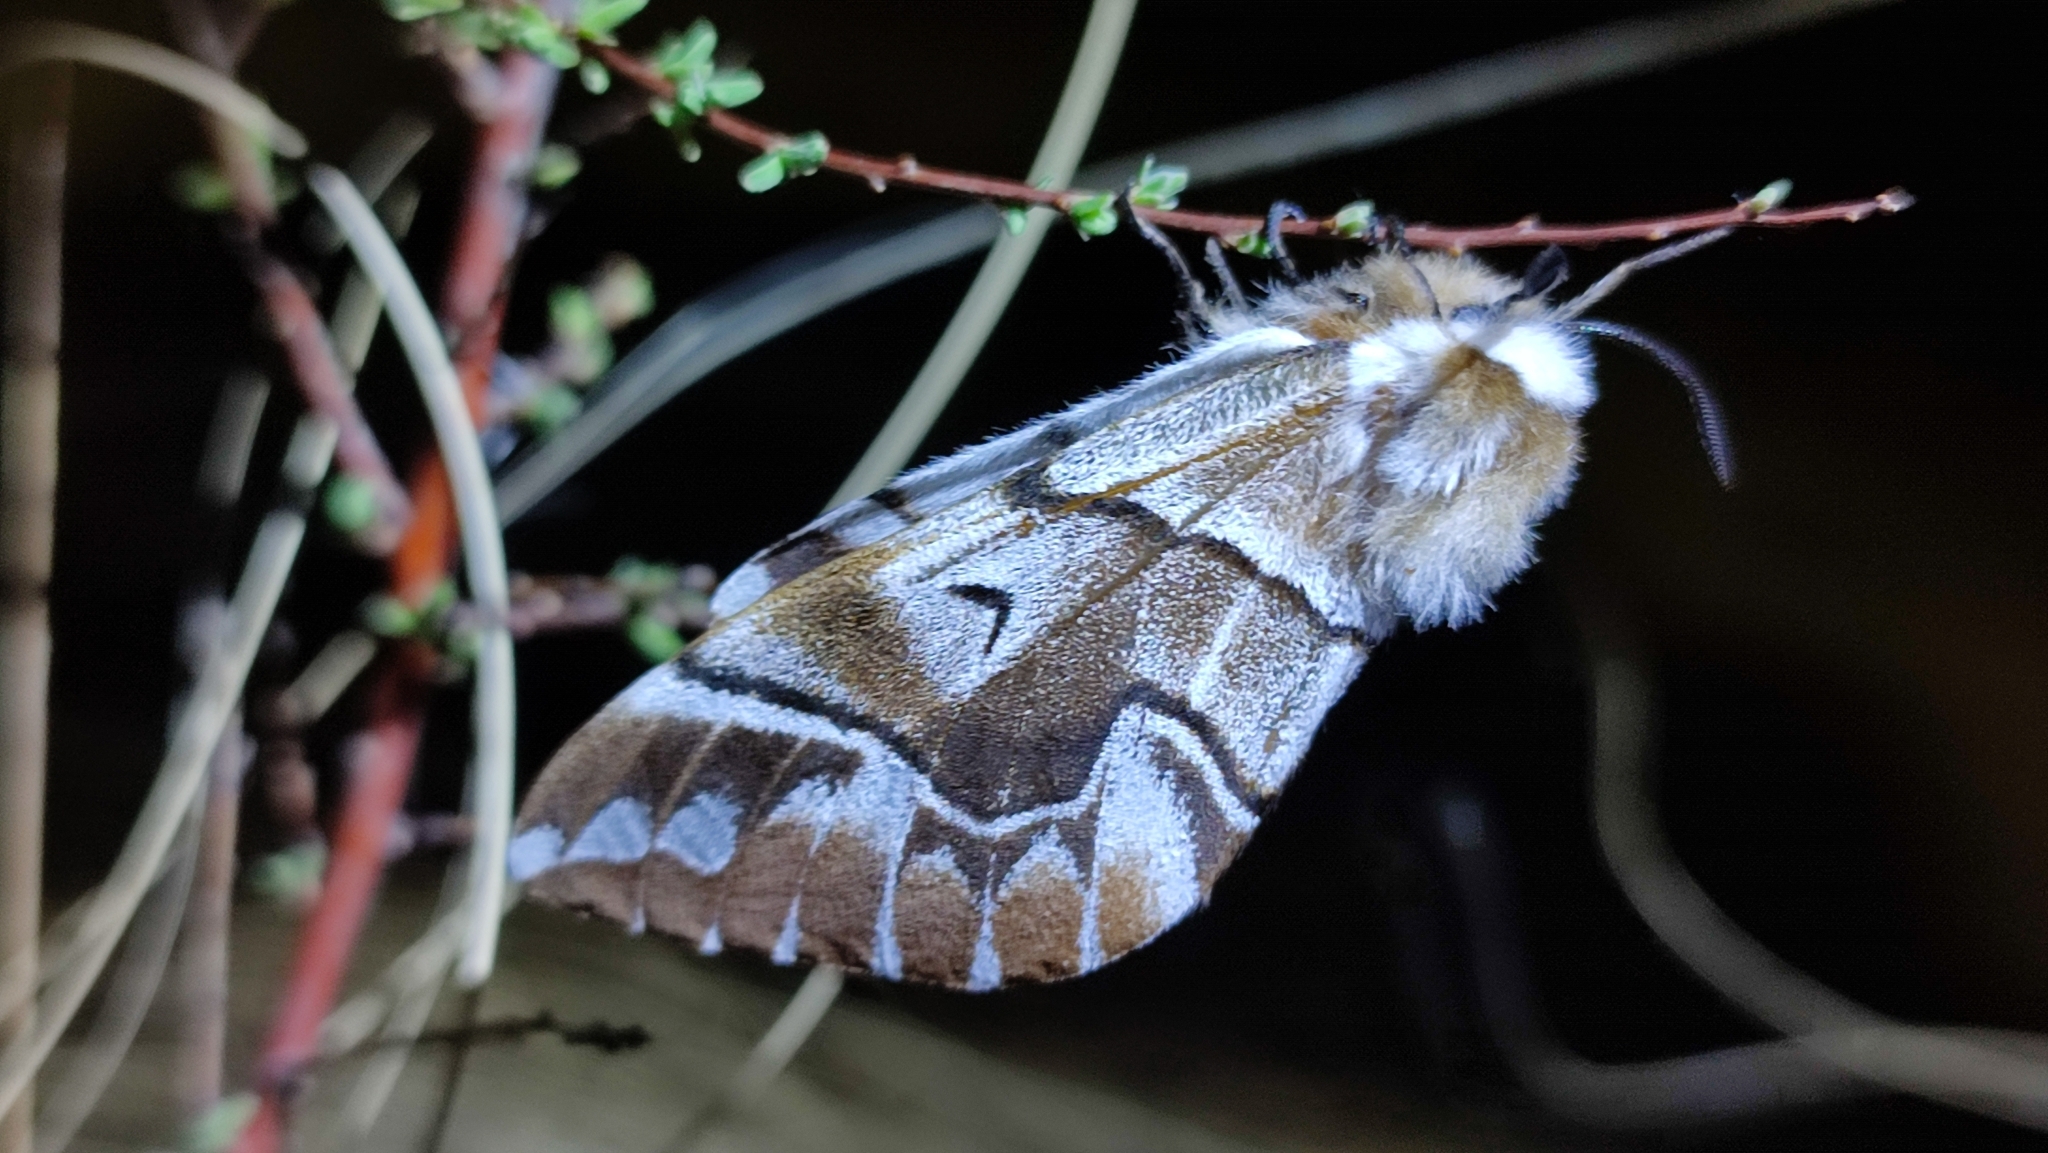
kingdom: Animalia
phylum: Arthropoda
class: Insecta
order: Lepidoptera
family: Endromidae
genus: Endromis
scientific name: Endromis versicolora
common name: Kentish glory
